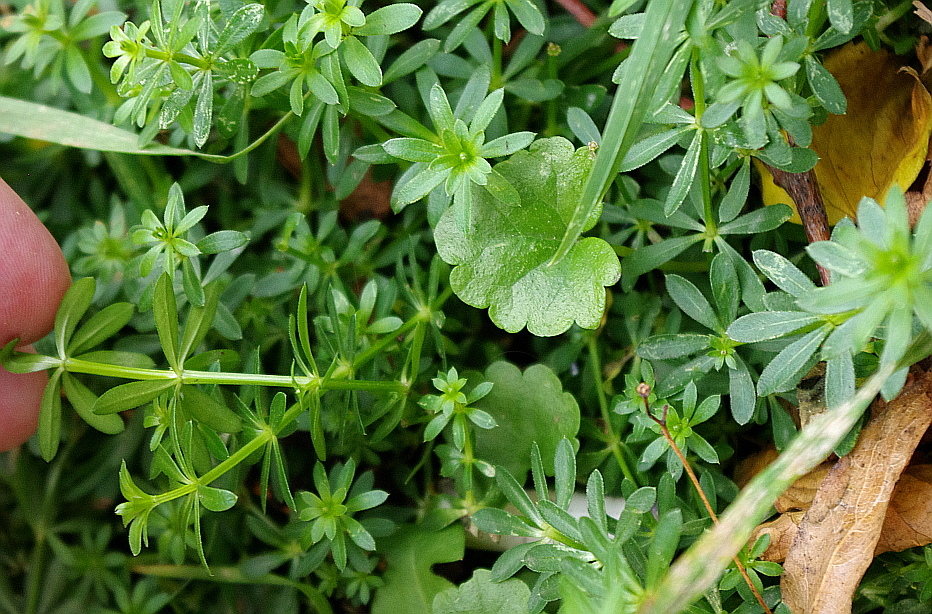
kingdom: Plantae
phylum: Tracheophyta
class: Magnoliopsida
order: Gentianales
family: Rubiaceae
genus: Galium
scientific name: Galium mollugo
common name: Hedge bedstraw
